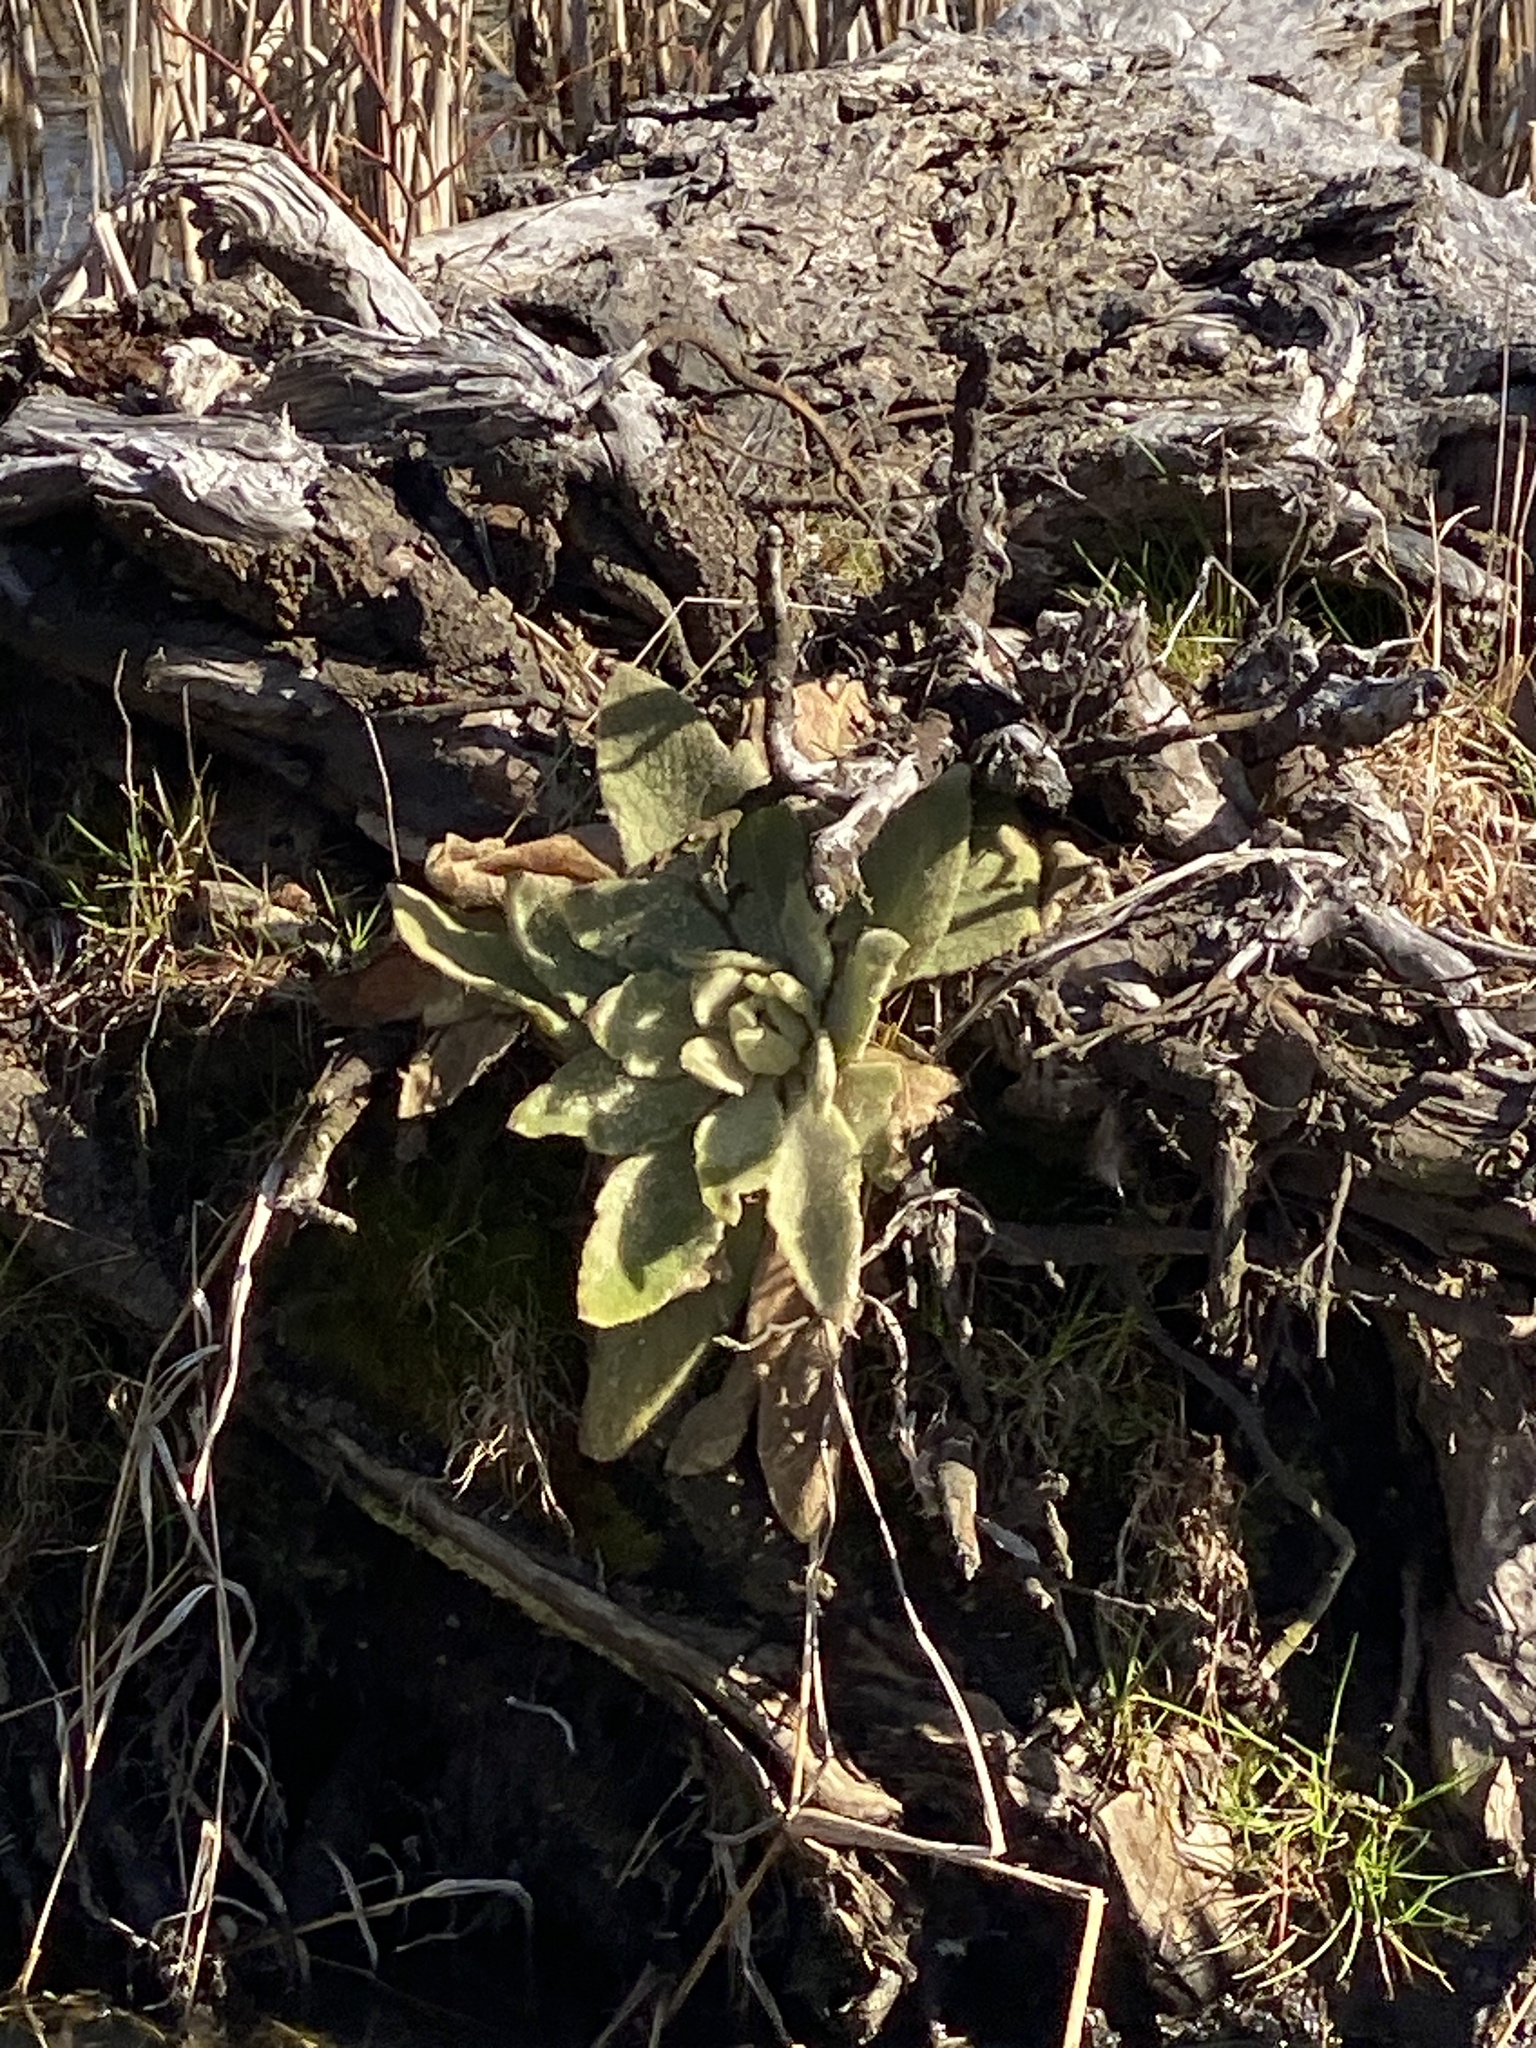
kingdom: Plantae
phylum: Tracheophyta
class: Magnoliopsida
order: Lamiales
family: Scrophulariaceae
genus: Verbascum
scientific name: Verbascum thapsus
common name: Common mullein
